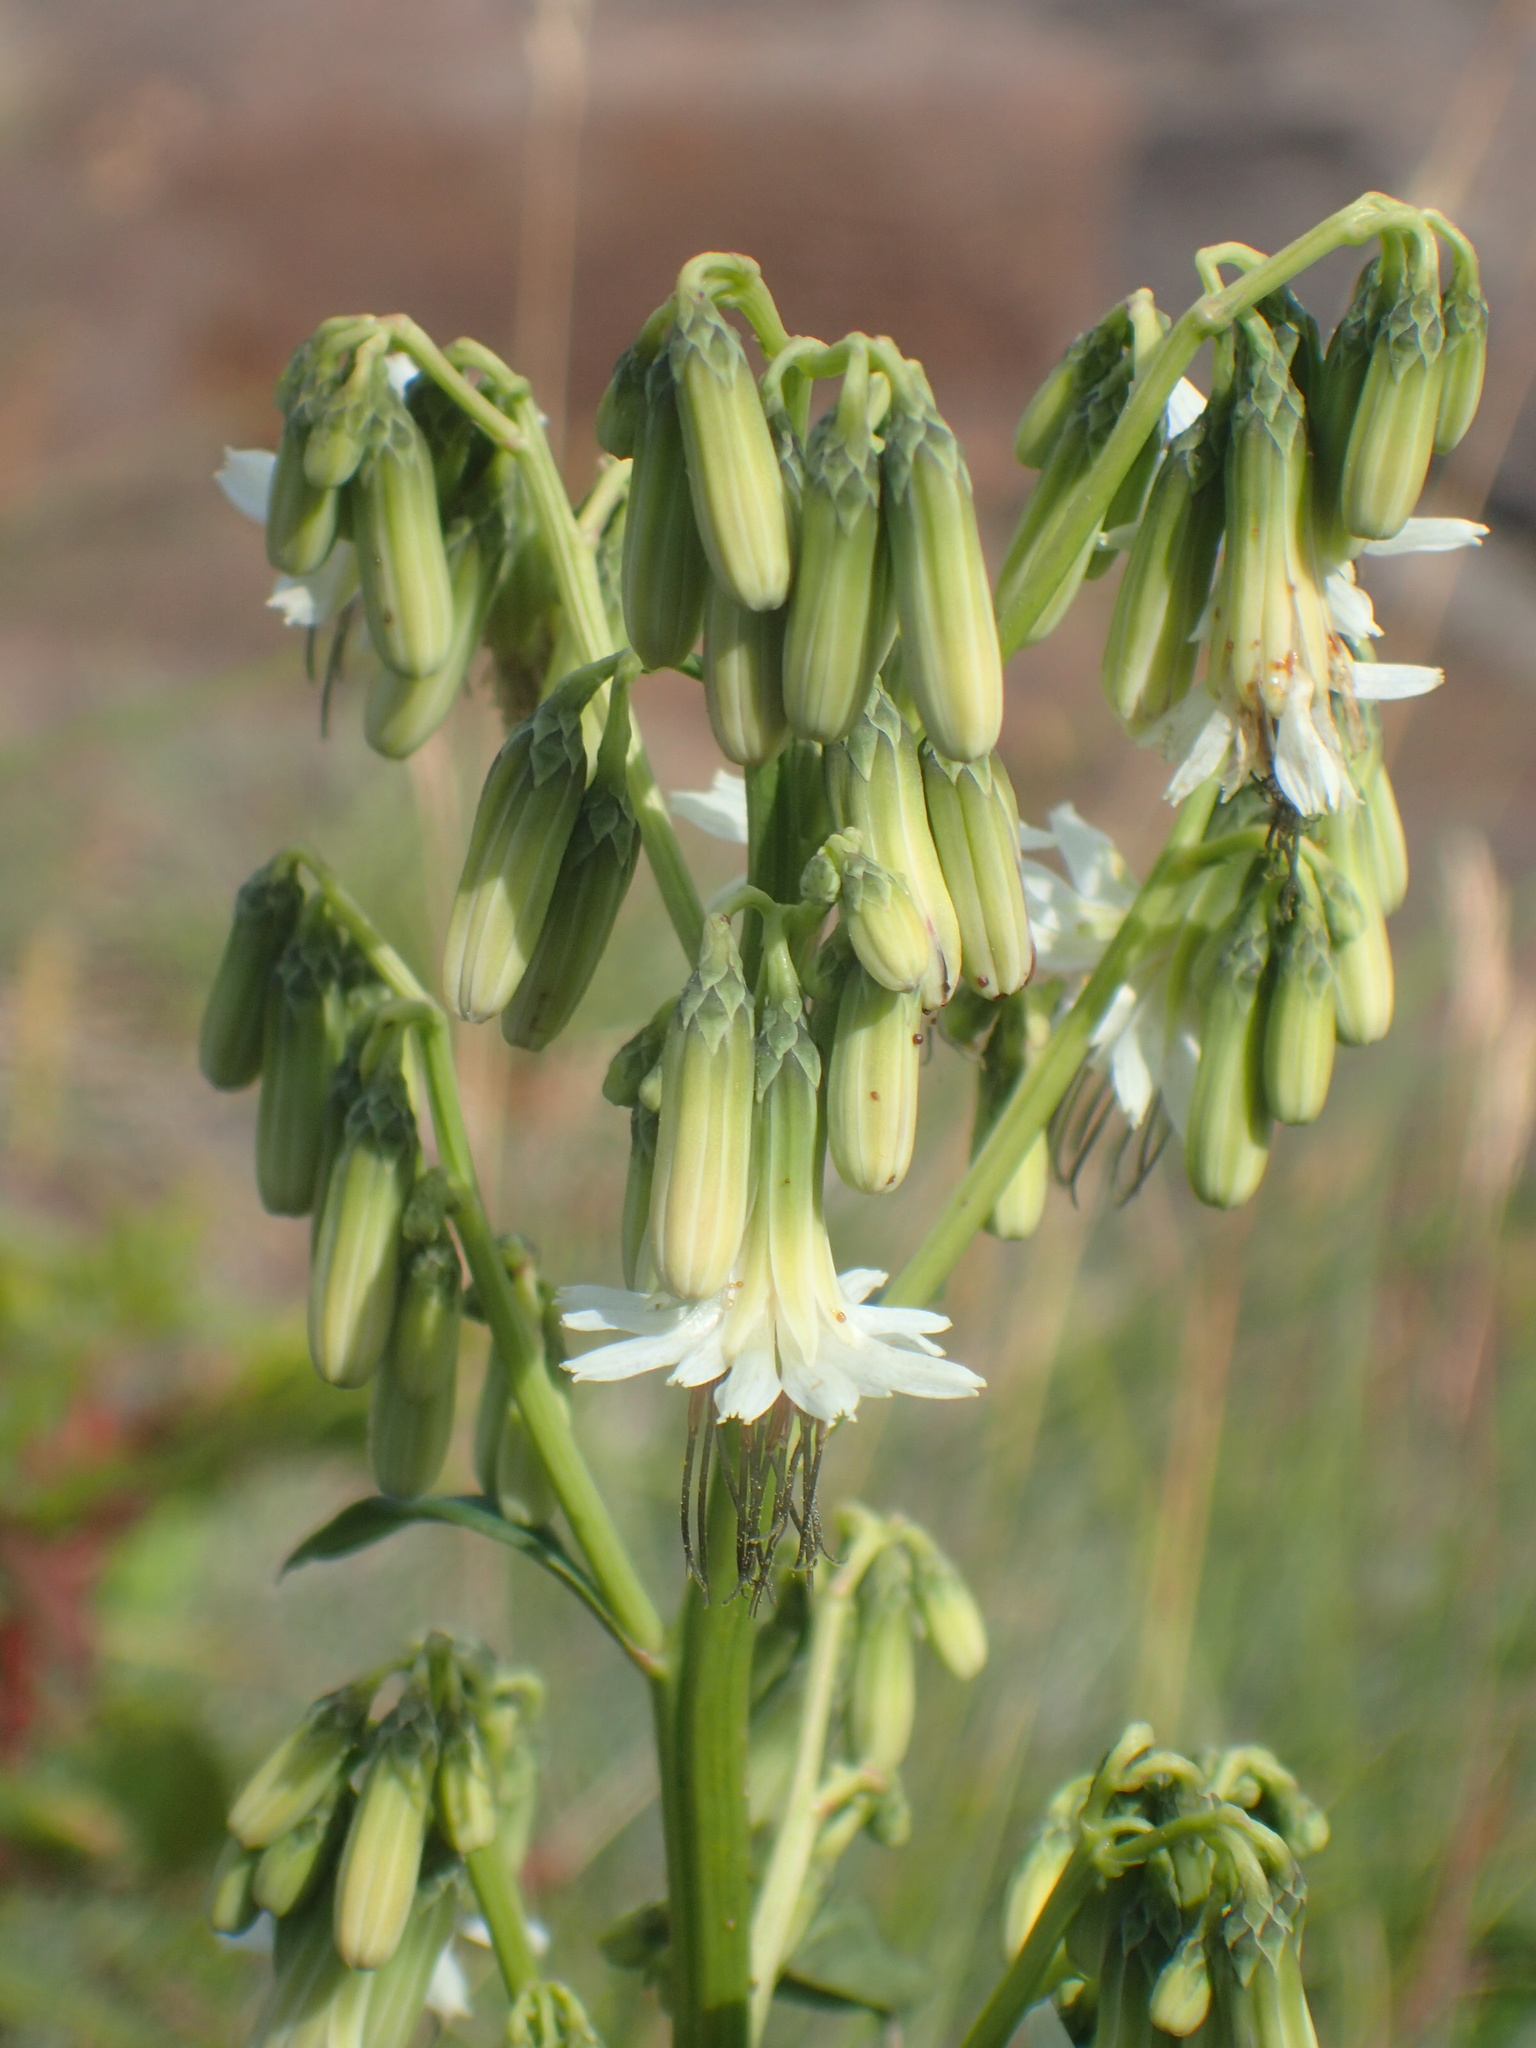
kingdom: Plantae
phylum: Tracheophyta
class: Magnoliopsida
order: Asterales
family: Asteraceae
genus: Nabalus
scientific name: Nabalus trifoliolatus
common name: Gall-of-the-earth
